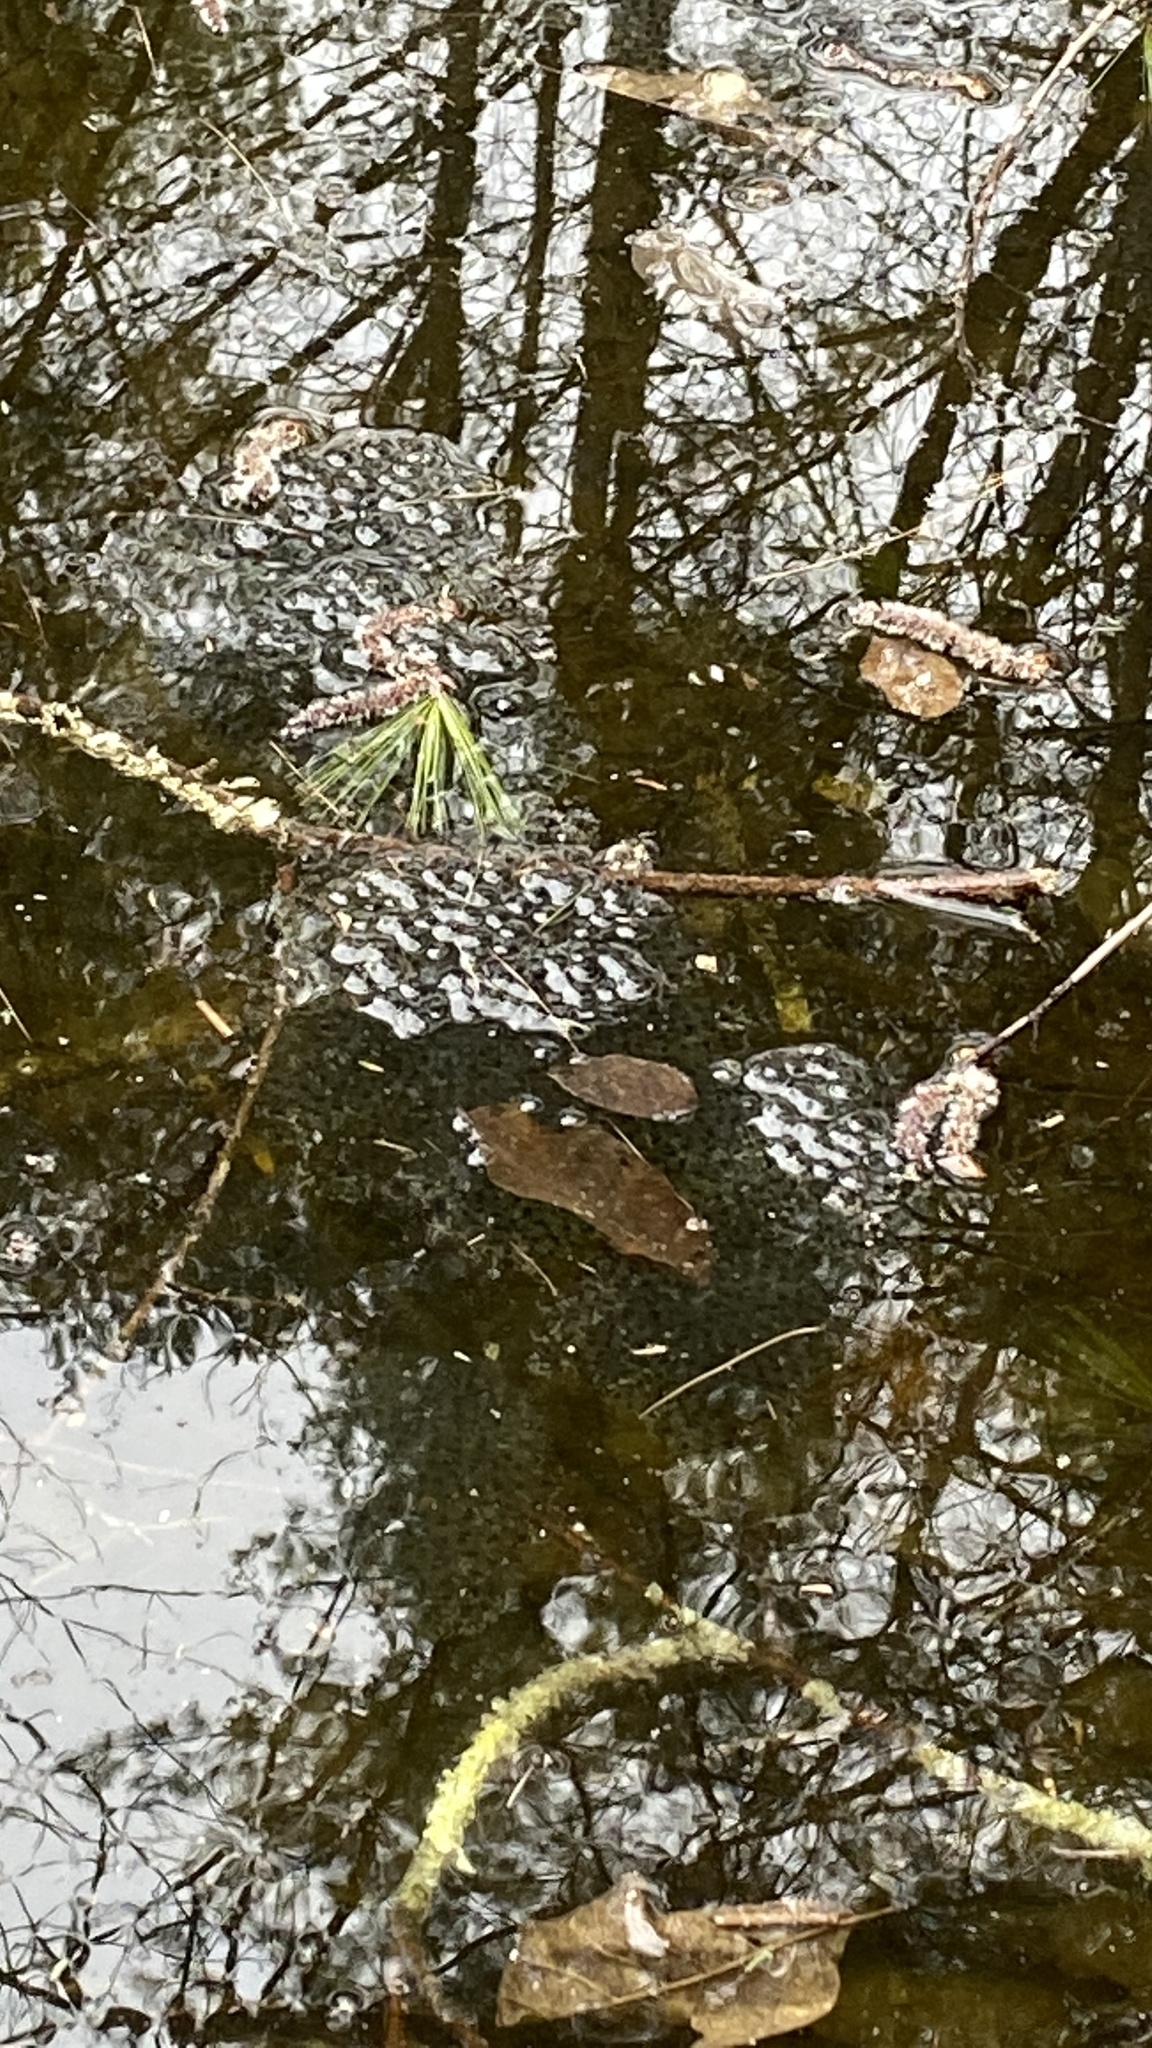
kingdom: Animalia
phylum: Chordata
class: Amphibia
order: Anura
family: Ranidae
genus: Lithobates
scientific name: Lithobates sylvaticus
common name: Wood frog
